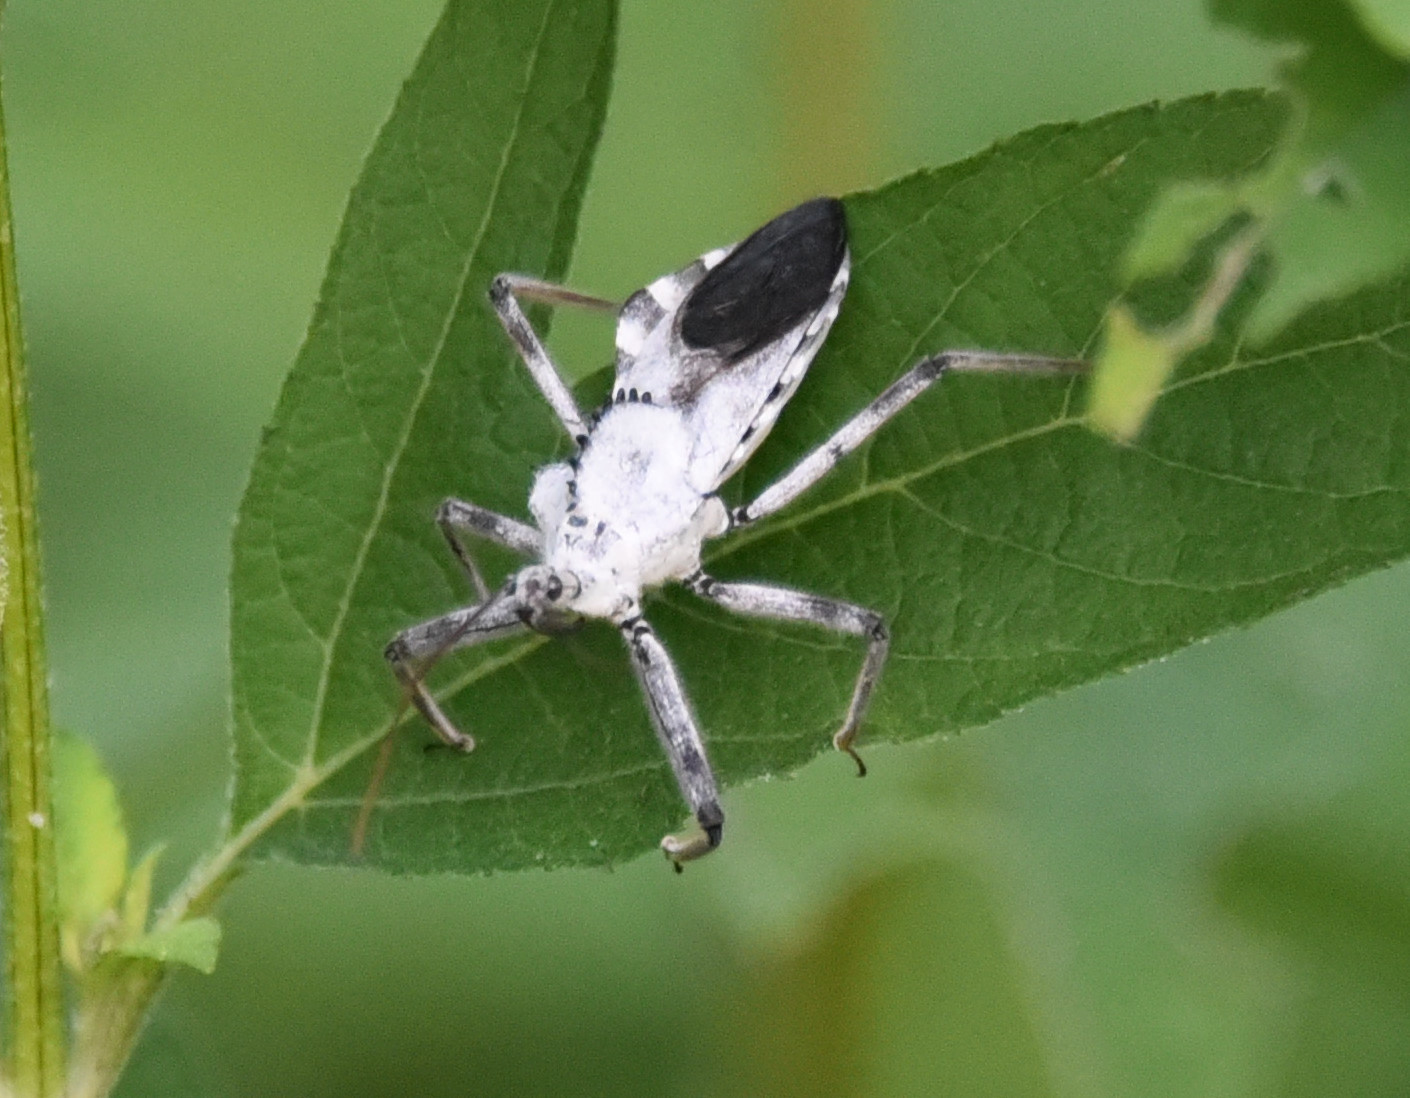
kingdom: Animalia
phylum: Arthropoda
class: Insecta
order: Hemiptera
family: Reduviidae
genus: Arilus
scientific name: Arilus cristatus
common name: North american wheel bug
